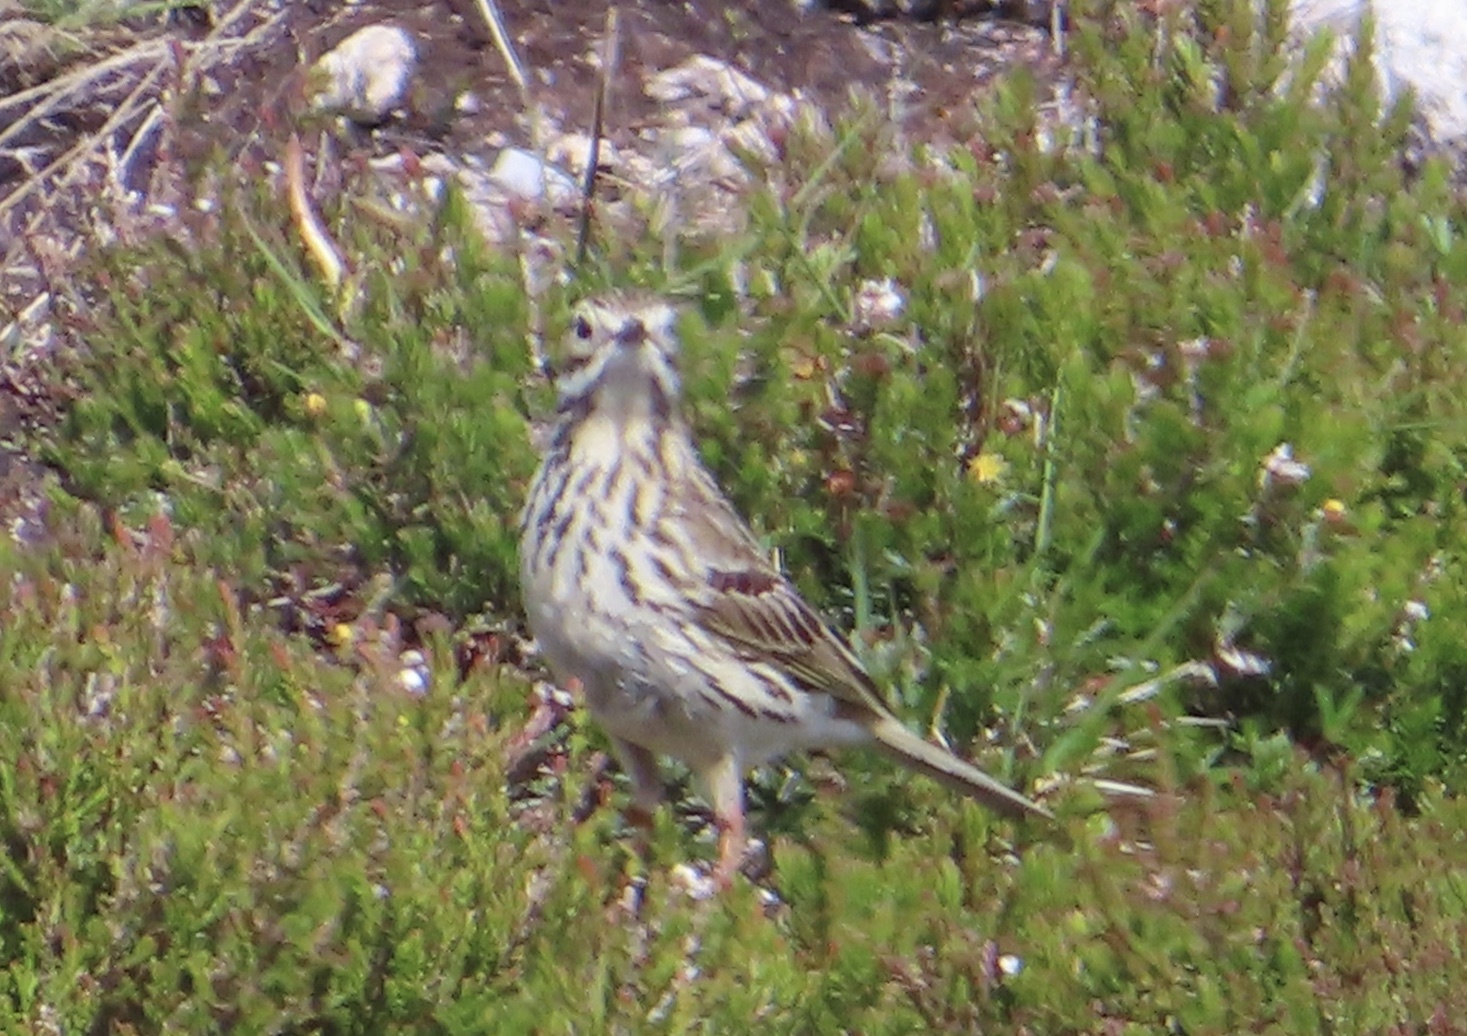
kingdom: Animalia
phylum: Chordata
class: Aves
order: Passeriformes
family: Motacillidae
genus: Anthus
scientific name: Anthus pratensis
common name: Meadow pipit
